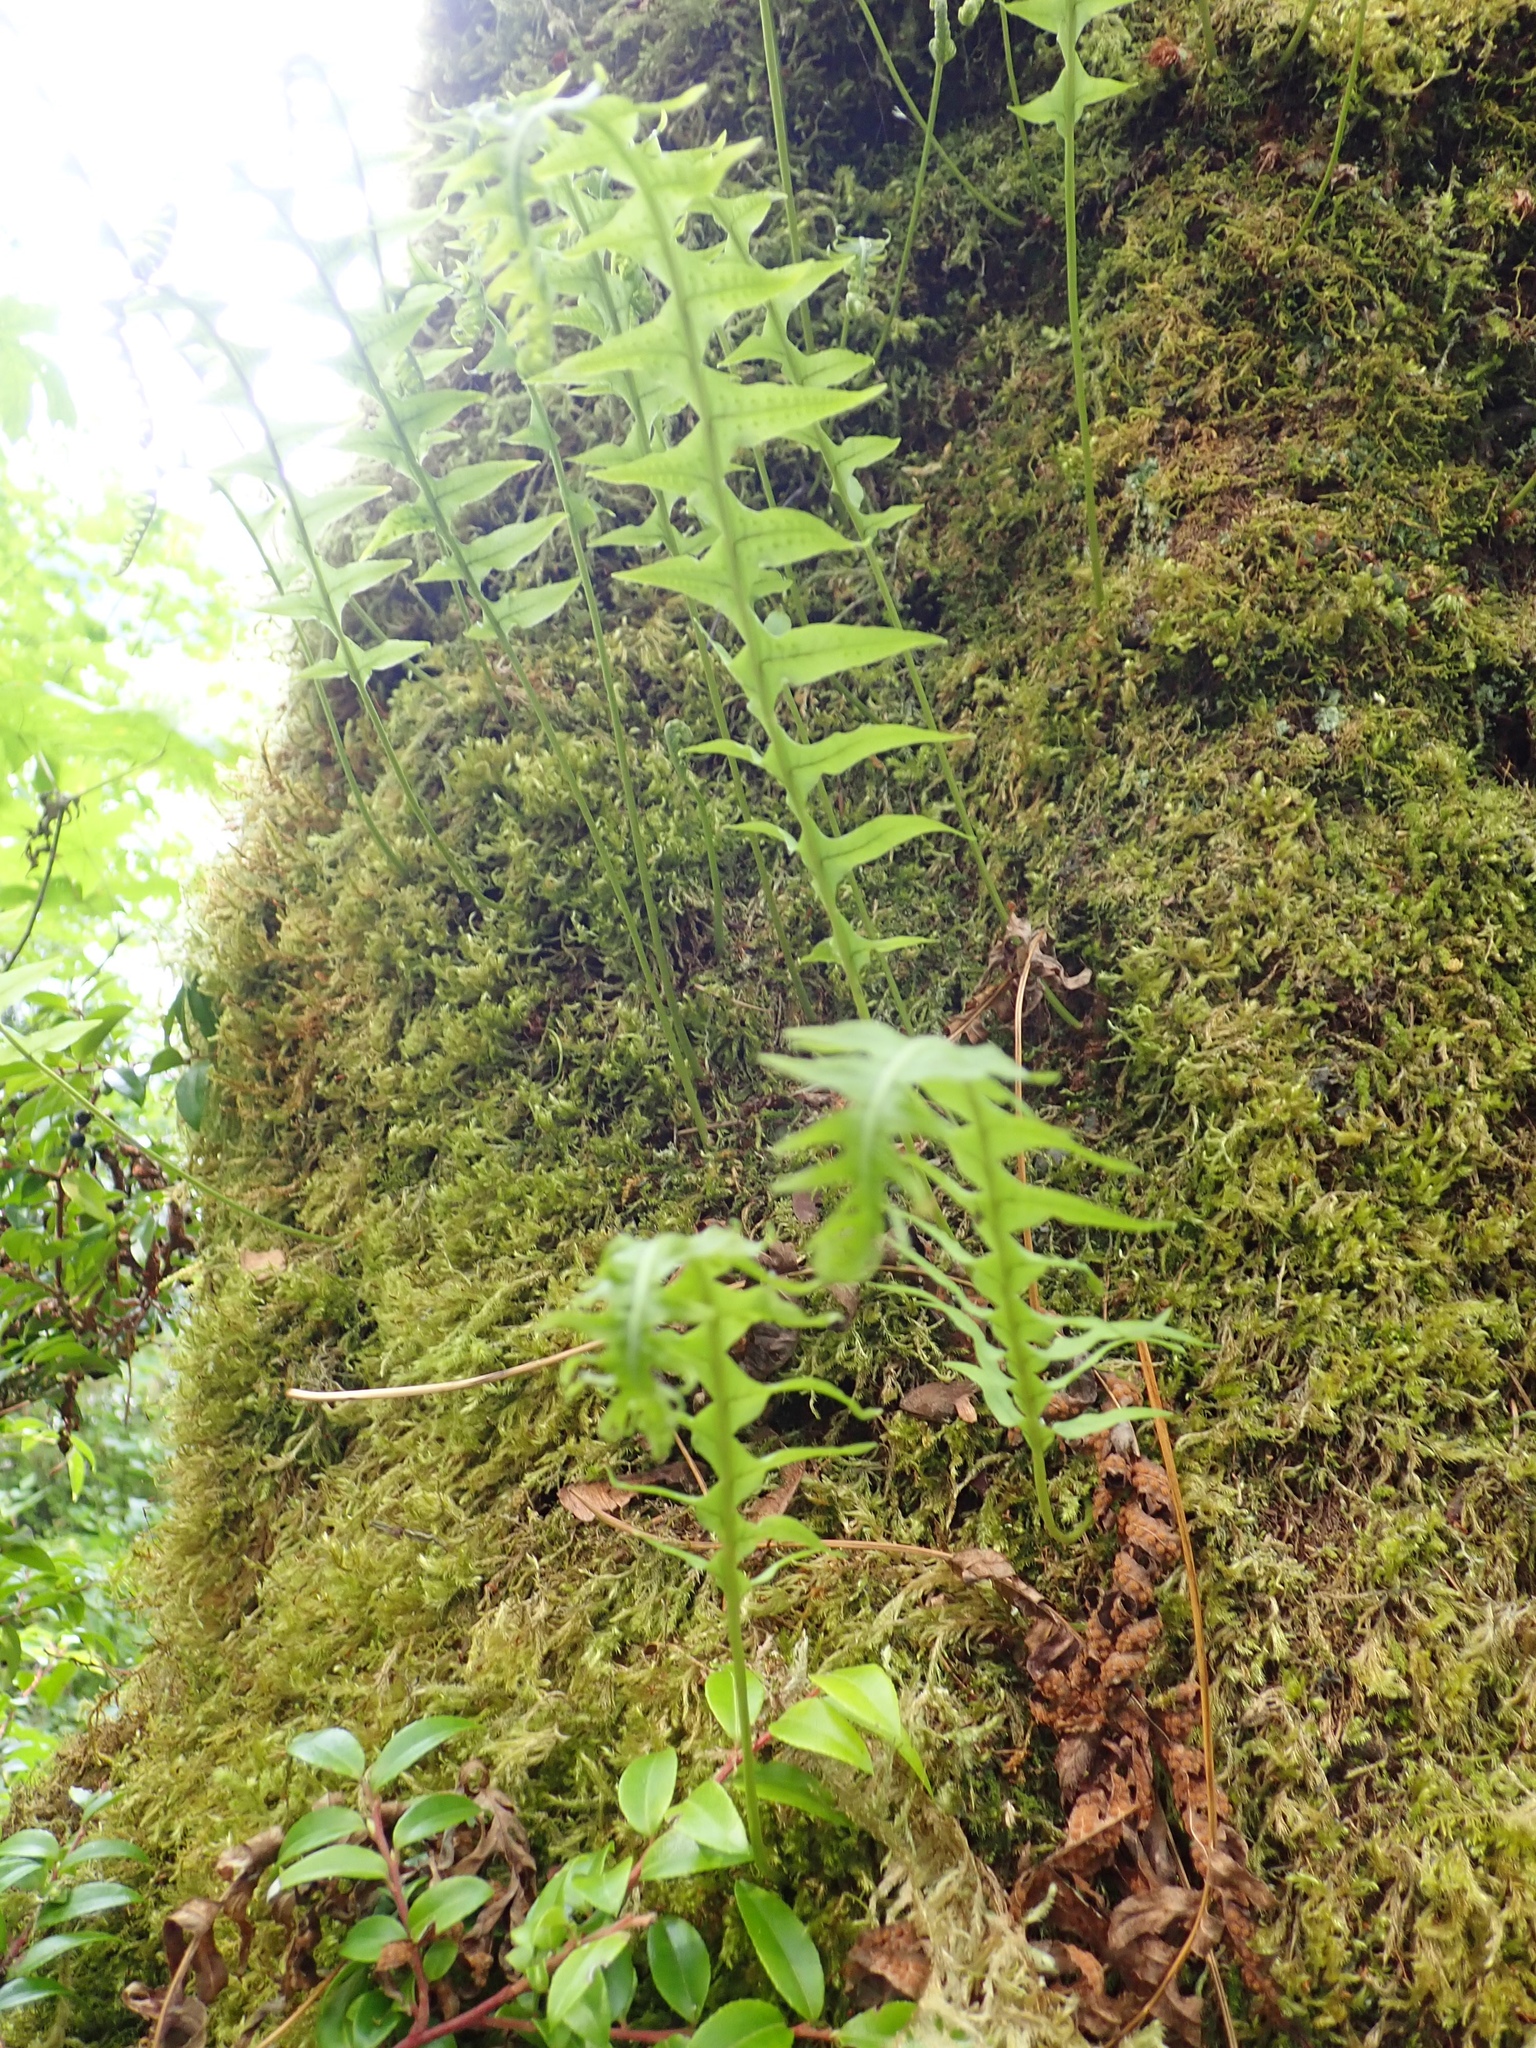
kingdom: Plantae
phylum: Tracheophyta
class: Polypodiopsida
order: Polypodiales
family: Polypodiaceae
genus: Polypodium
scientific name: Polypodium glycyrrhiza
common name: Licorice fern
